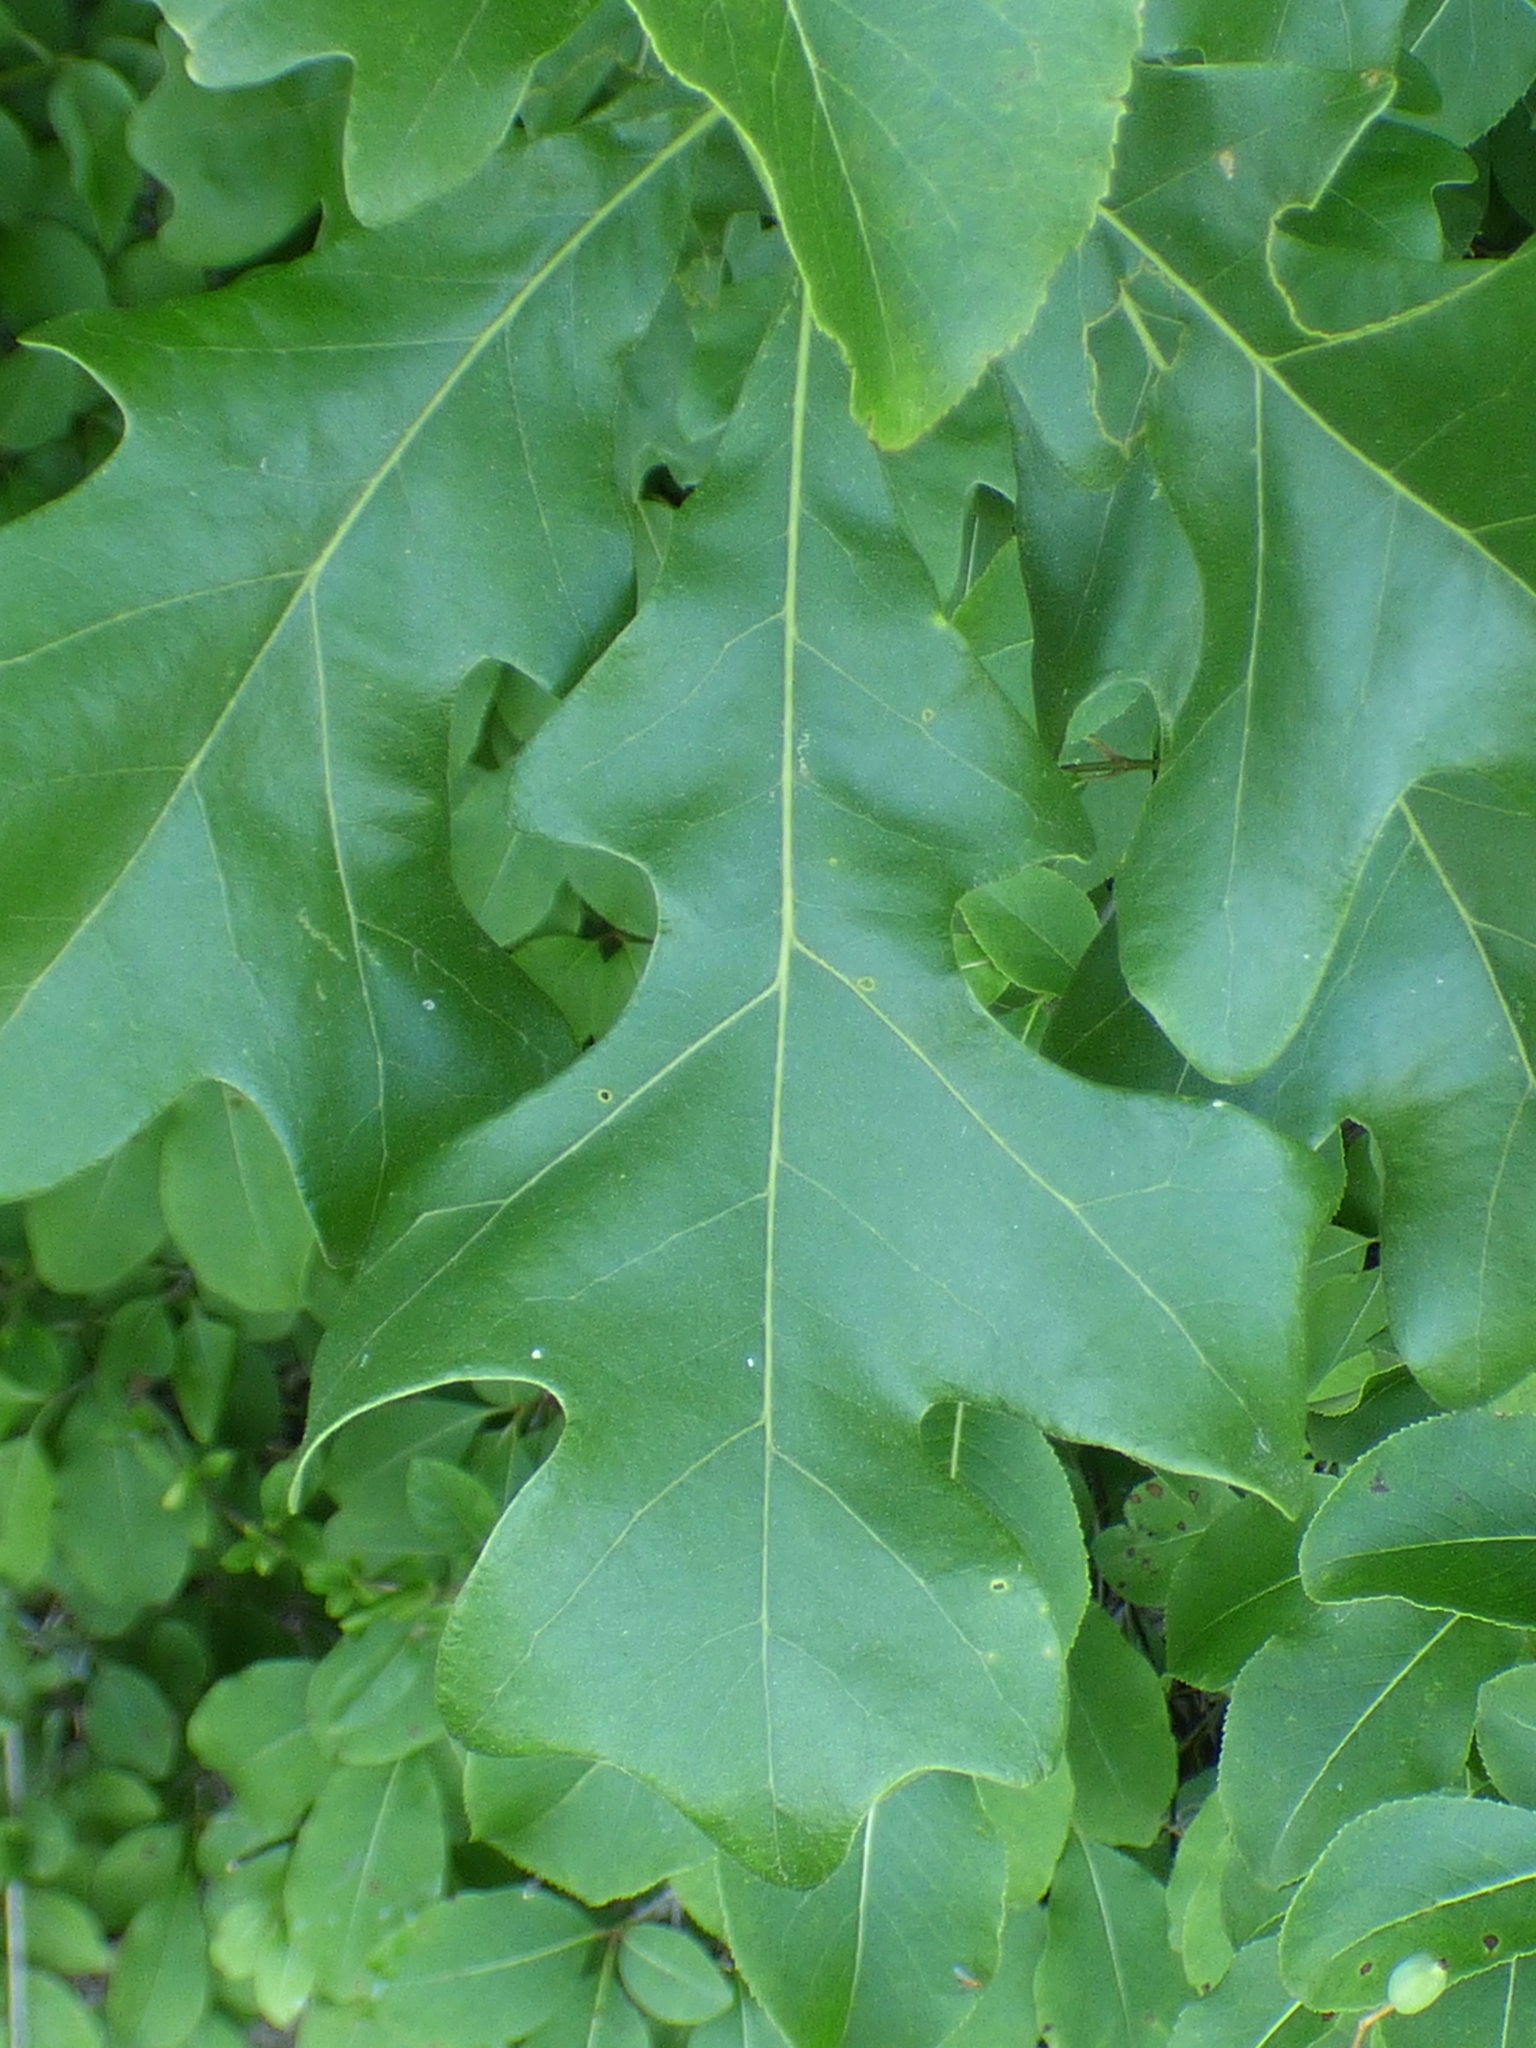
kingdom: Plantae
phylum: Tracheophyta
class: Magnoliopsida
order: Fagales
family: Fagaceae
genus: Quercus
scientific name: Quercus stellata
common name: Post oak
